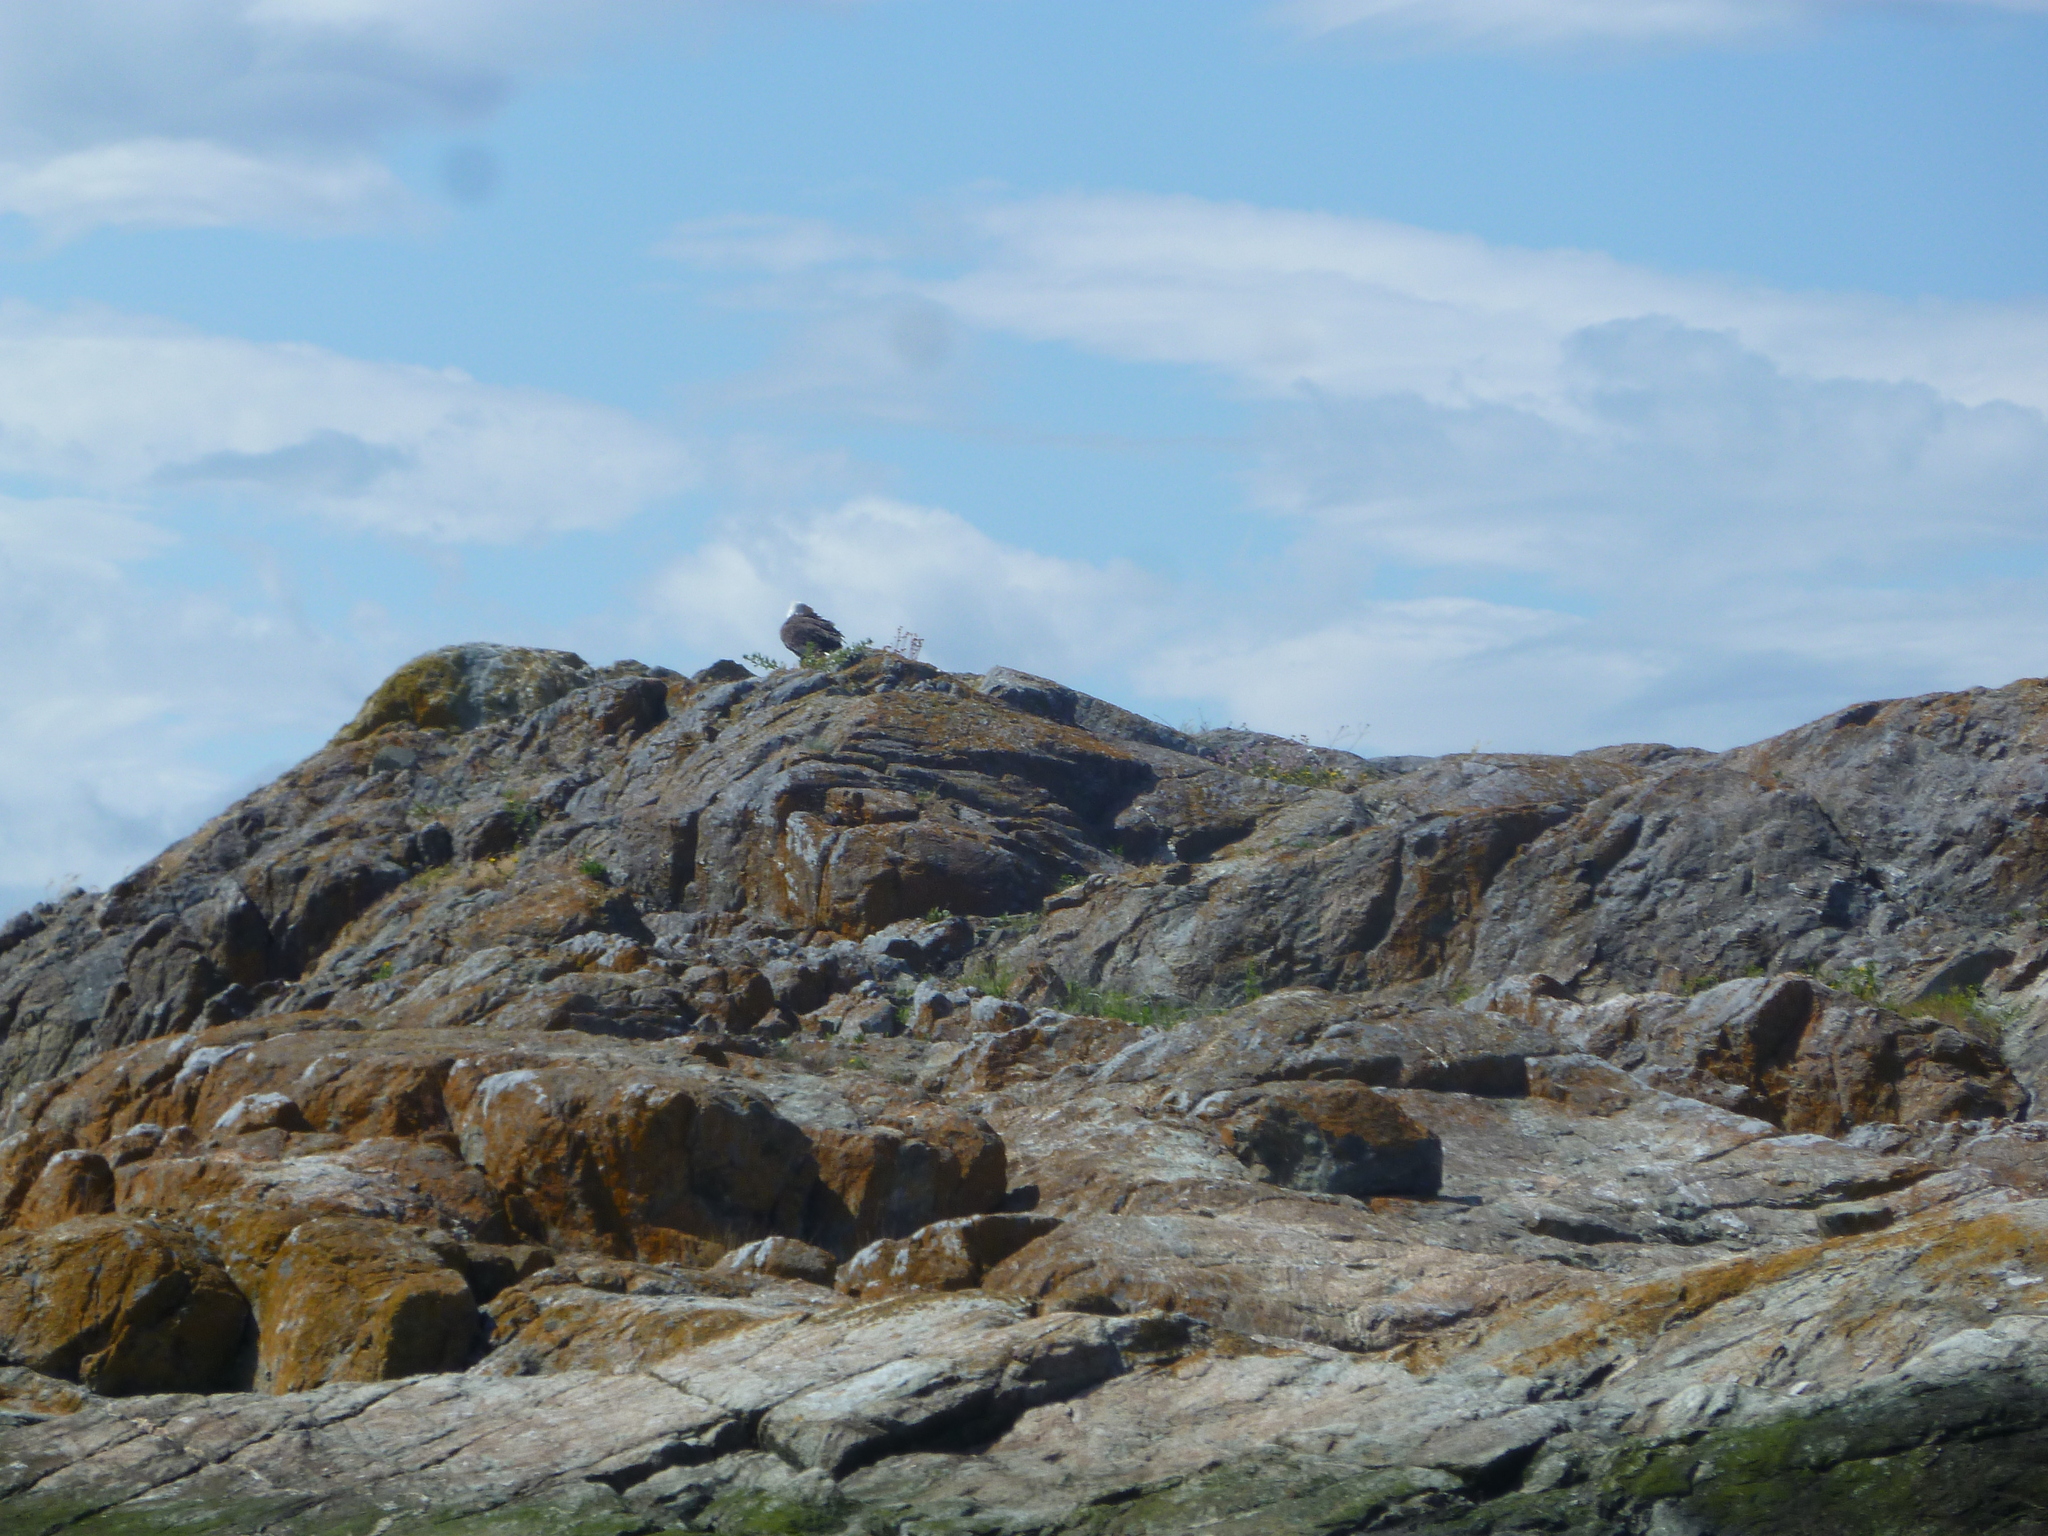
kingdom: Animalia
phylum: Chordata
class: Aves
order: Accipitriformes
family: Accipitridae
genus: Haliaeetus
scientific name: Haliaeetus leucocephalus
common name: Bald eagle
